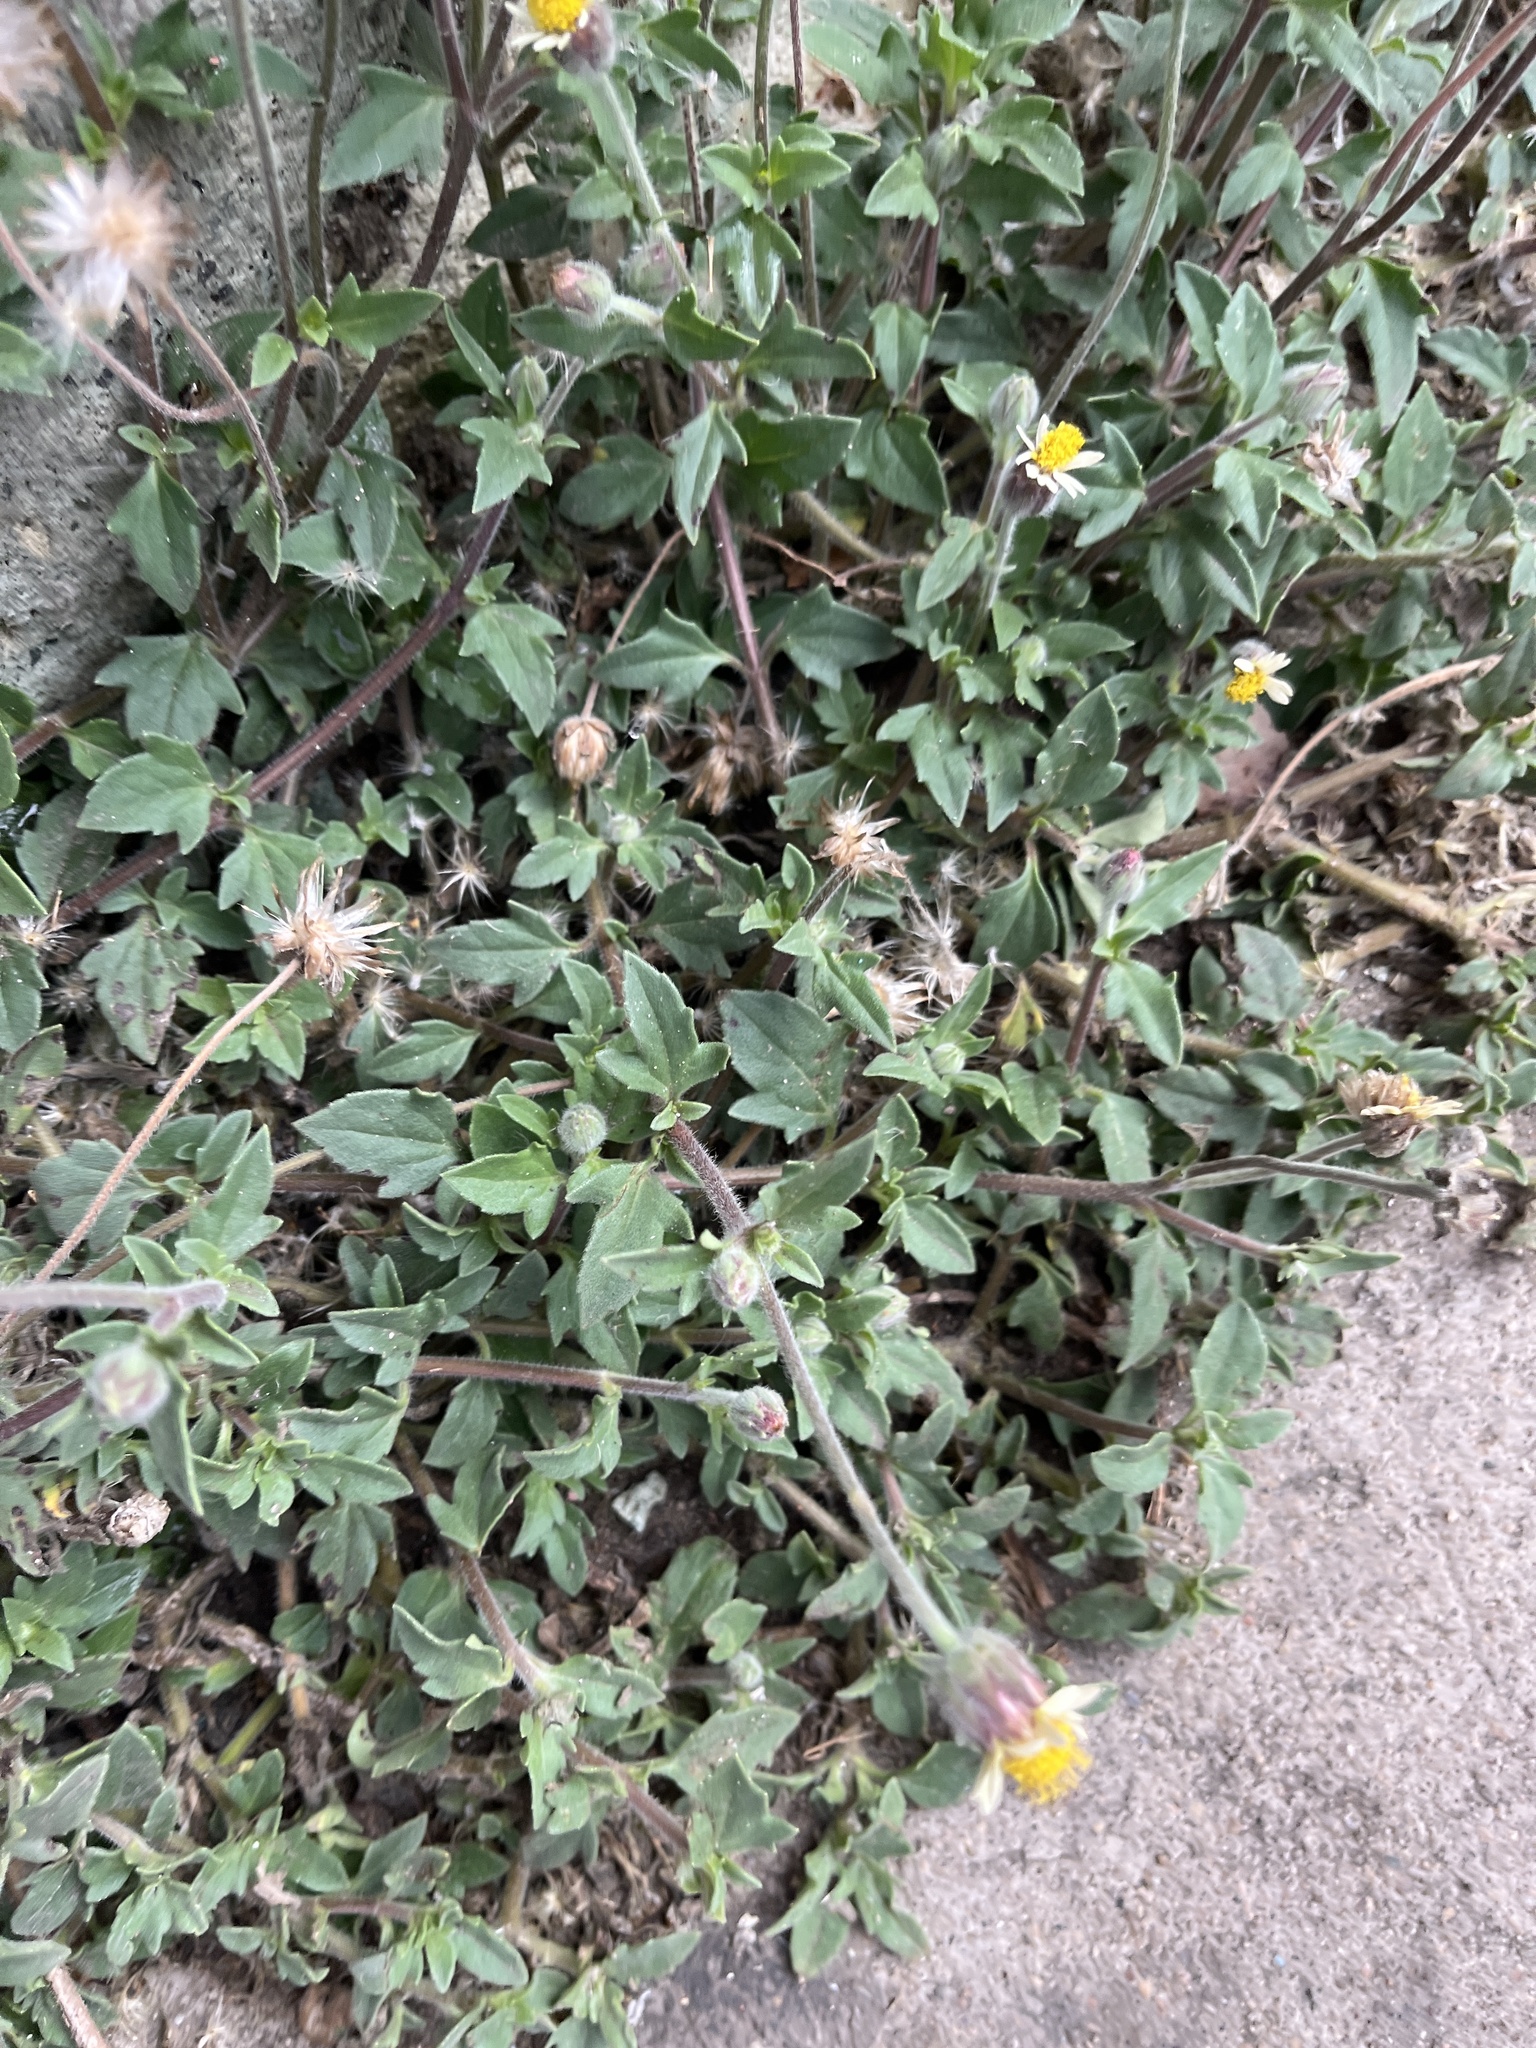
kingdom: Plantae
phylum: Tracheophyta
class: Magnoliopsida
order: Asterales
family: Asteraceae
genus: Tridax
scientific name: Tridax procumbens
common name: Coatbuttons
